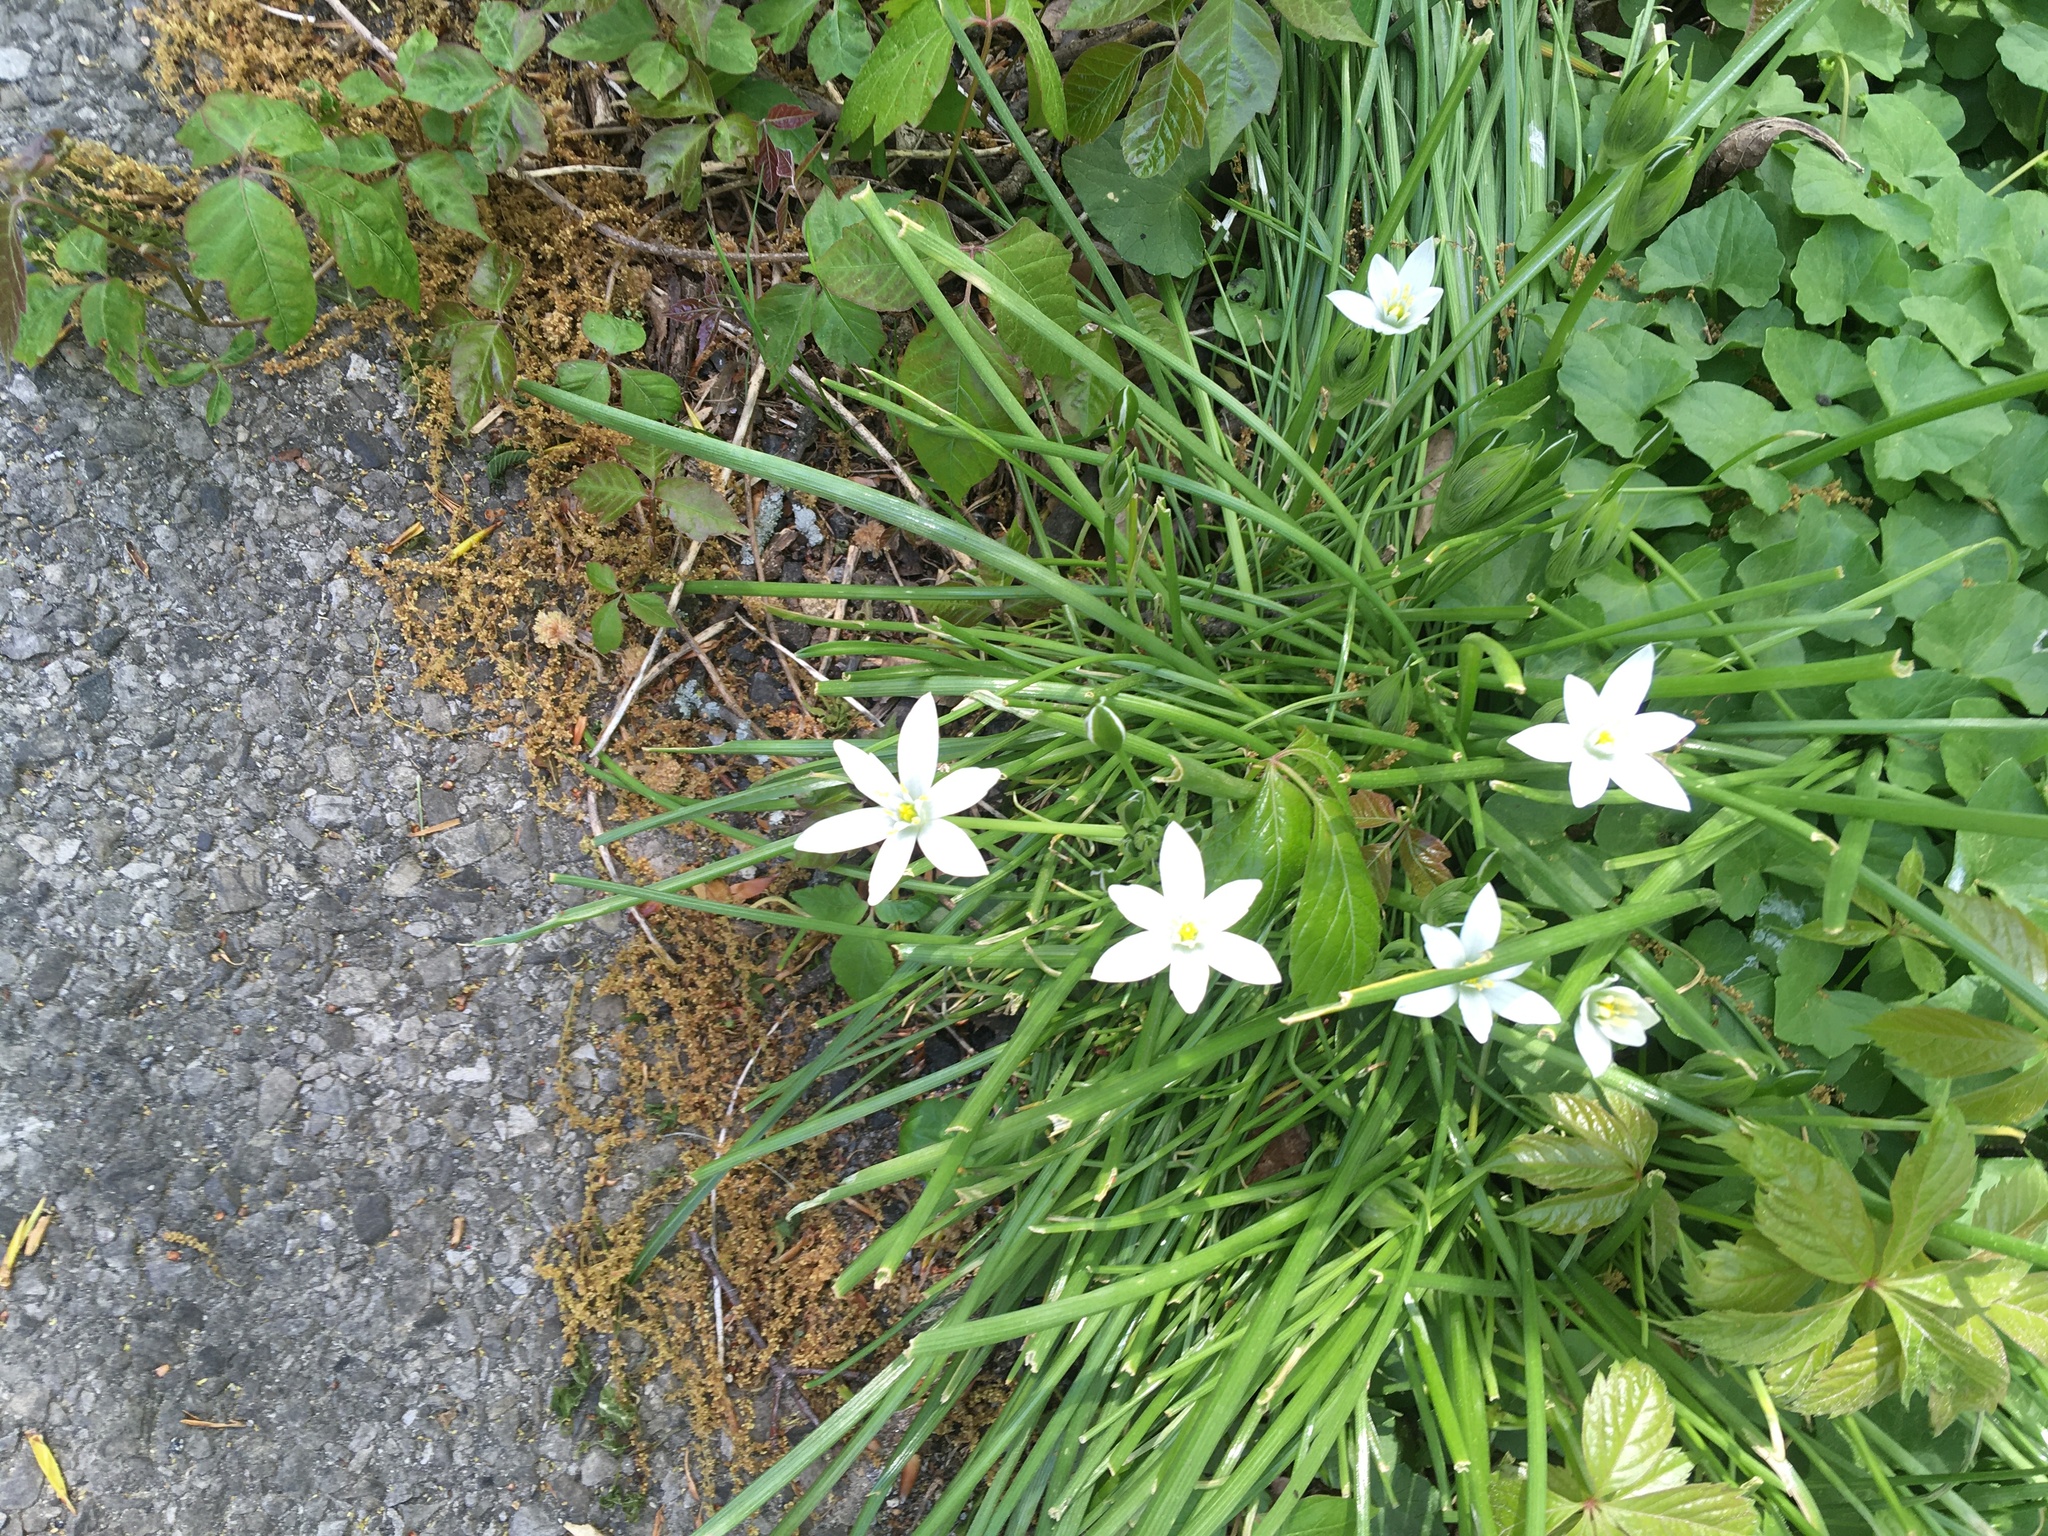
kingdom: Plantae
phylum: Tracheophyta
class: Liliopsida
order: Asparagales
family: Asparagaceae
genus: Ornithogalum
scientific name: Ornithogalum umbellatum
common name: Garden star-of-bethlehem
